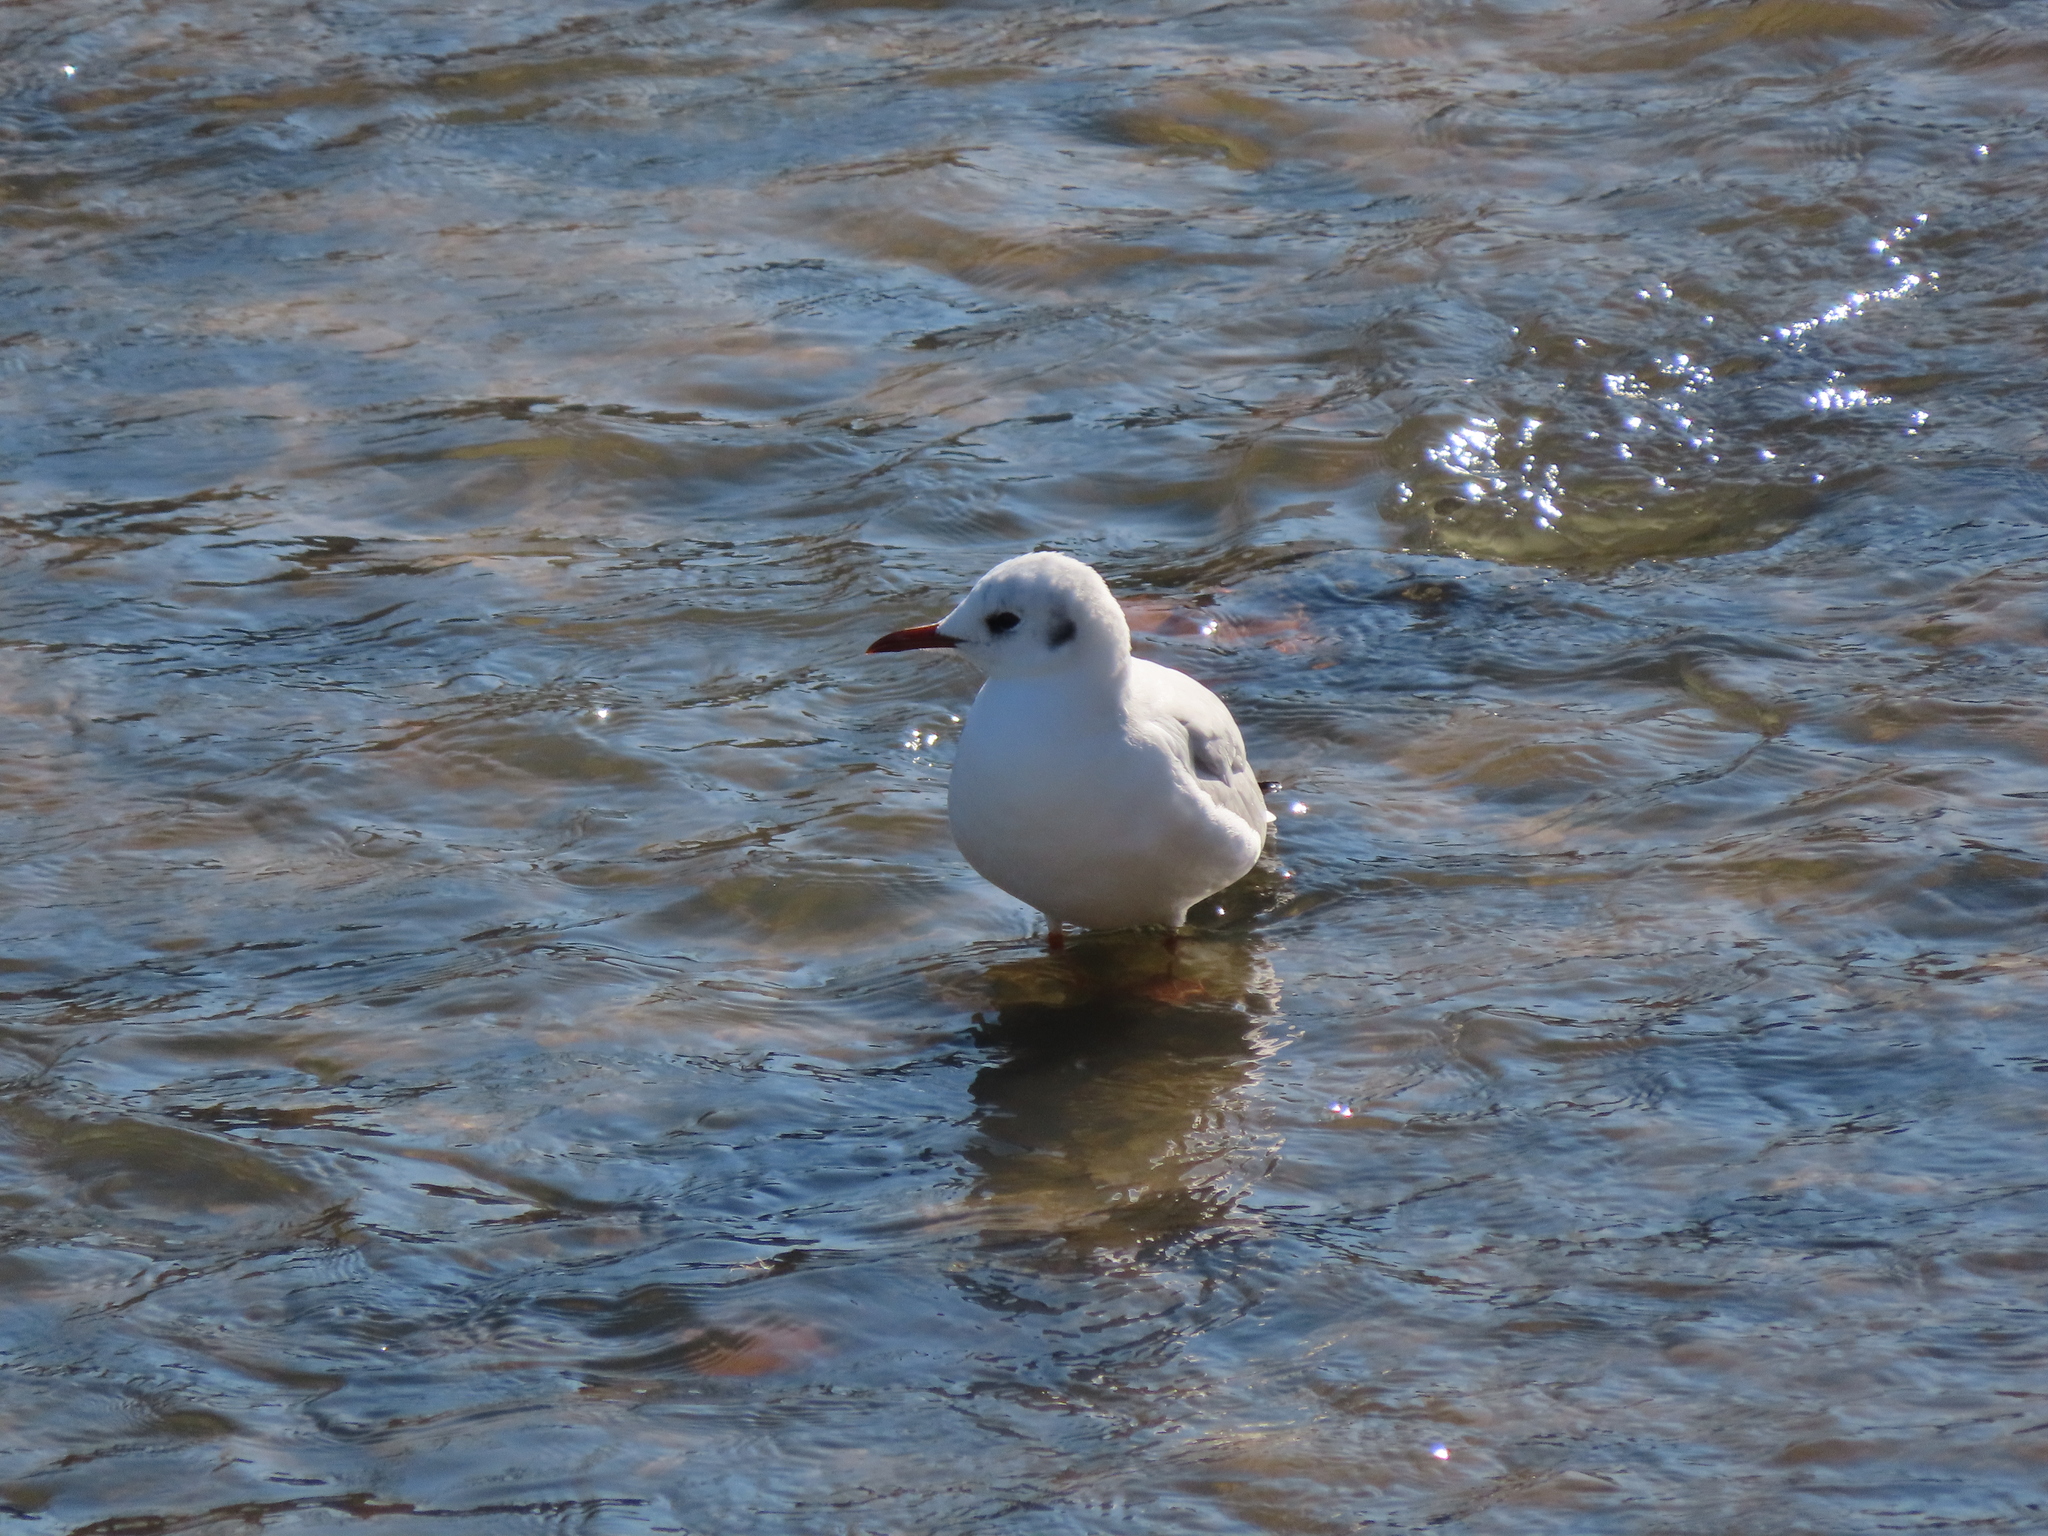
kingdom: Animalia
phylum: Chordata
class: Aves
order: Charadriiformes
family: Laridae
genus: Chroicocephalus
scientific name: Chroicocephalus ridibundus
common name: Black-headed gull
